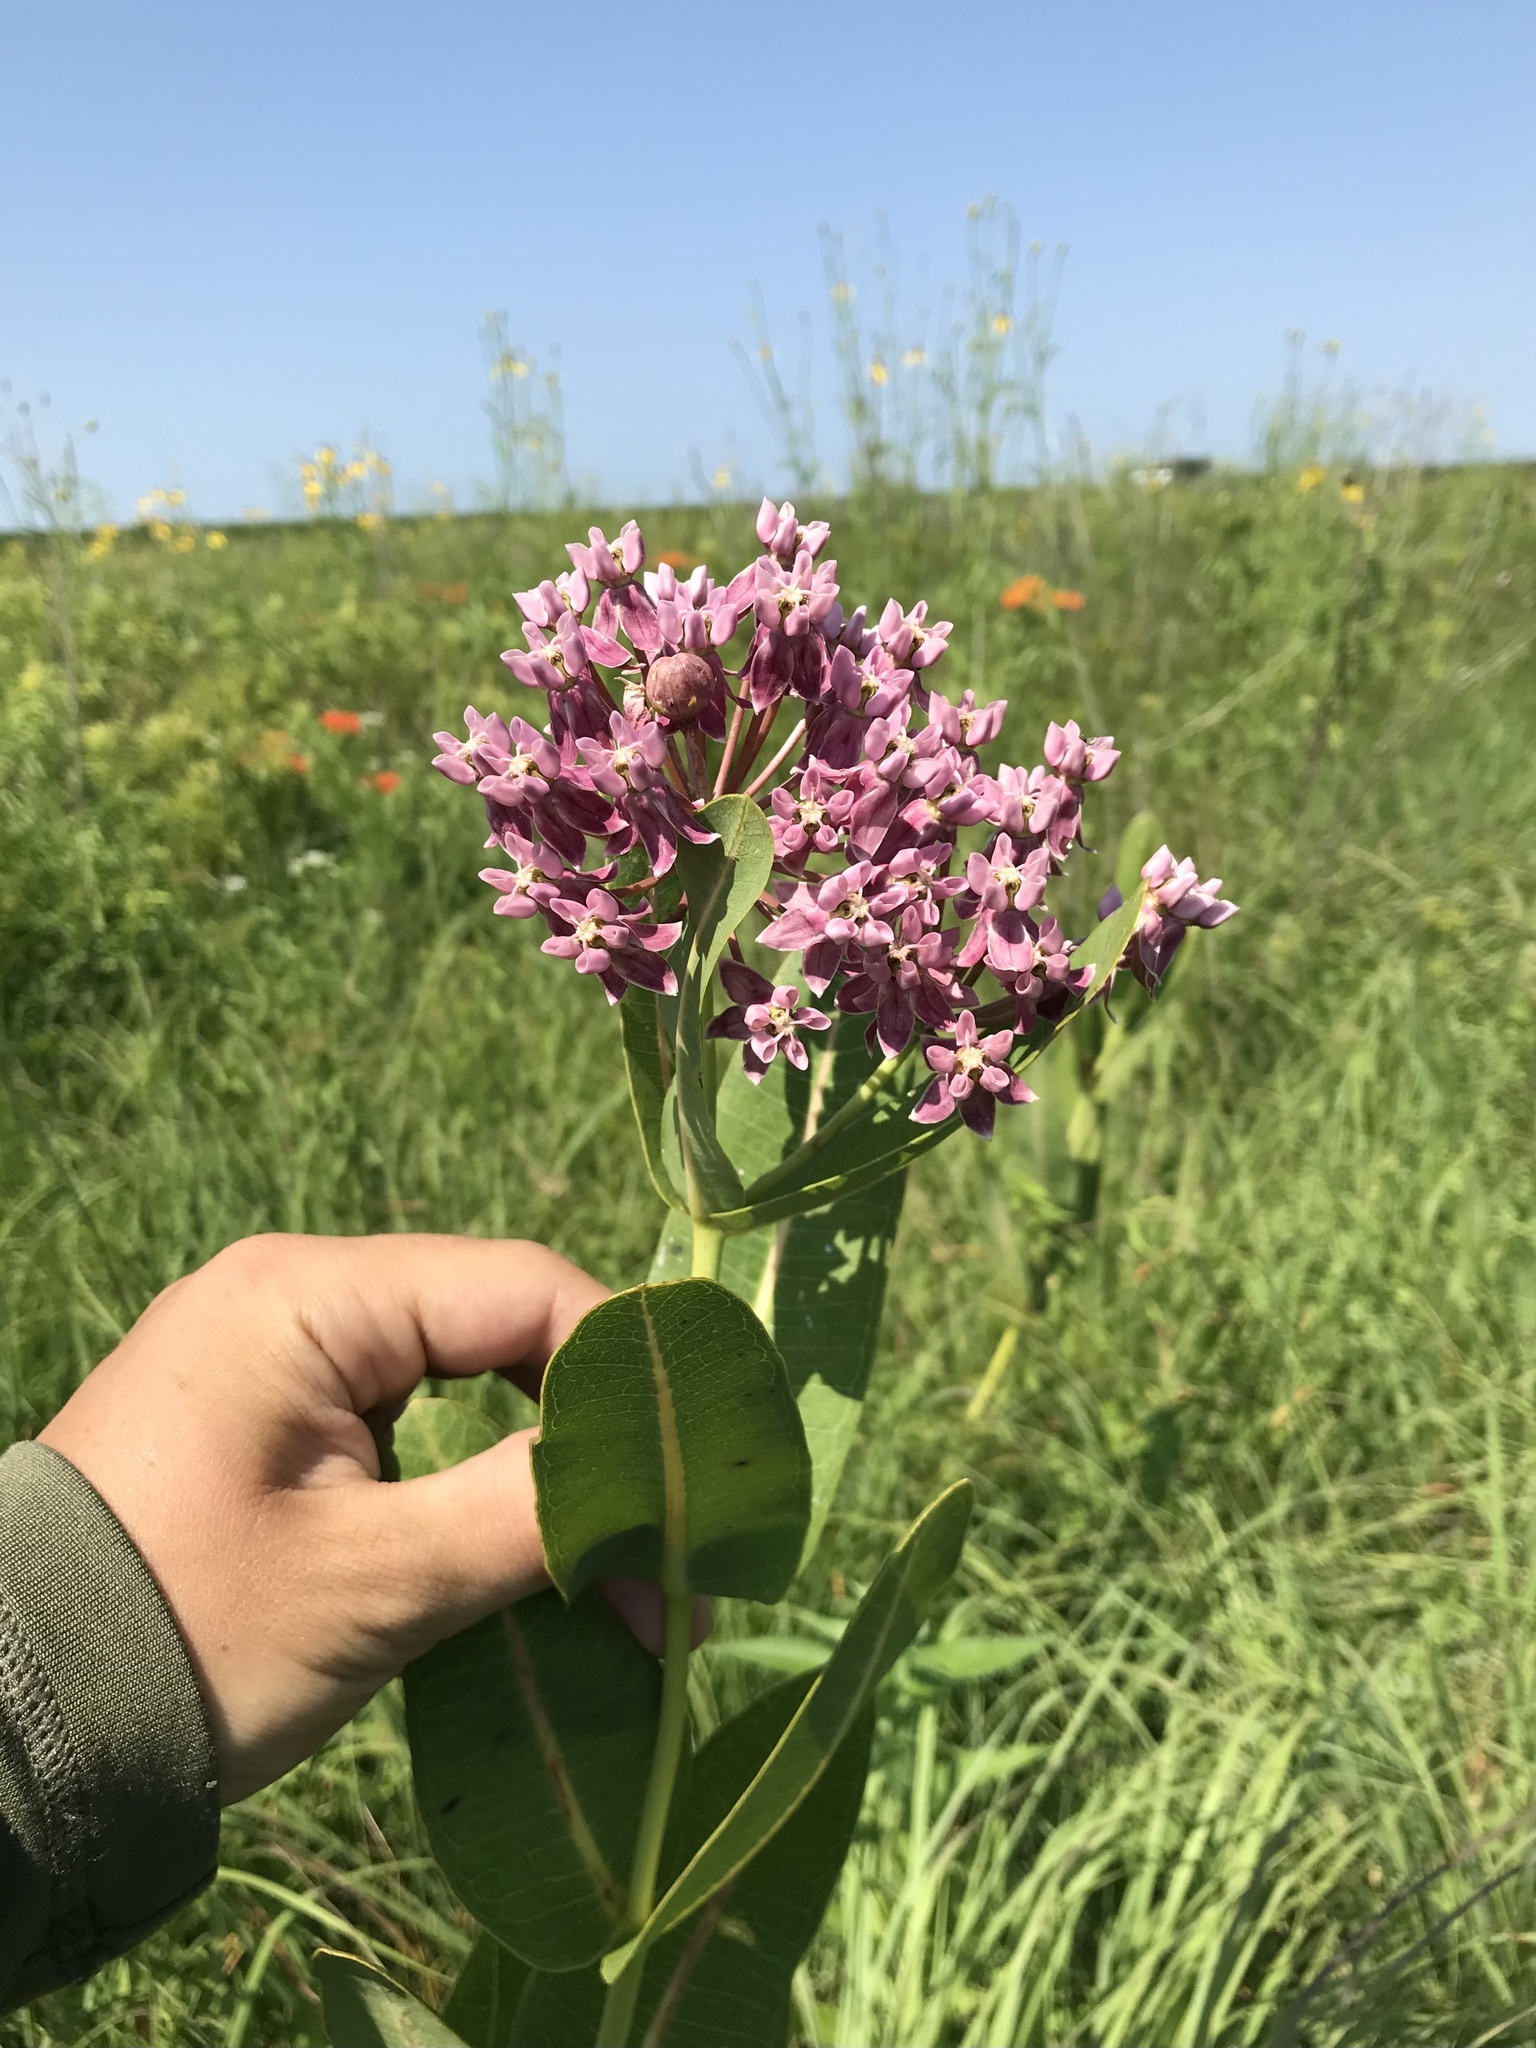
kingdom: Plantae
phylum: Tracheophyta
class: Magnoliopsida
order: Gentianales
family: Apocynaceae
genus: Asclepias
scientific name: Asclepias sullivantii
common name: Prairie milkweed
